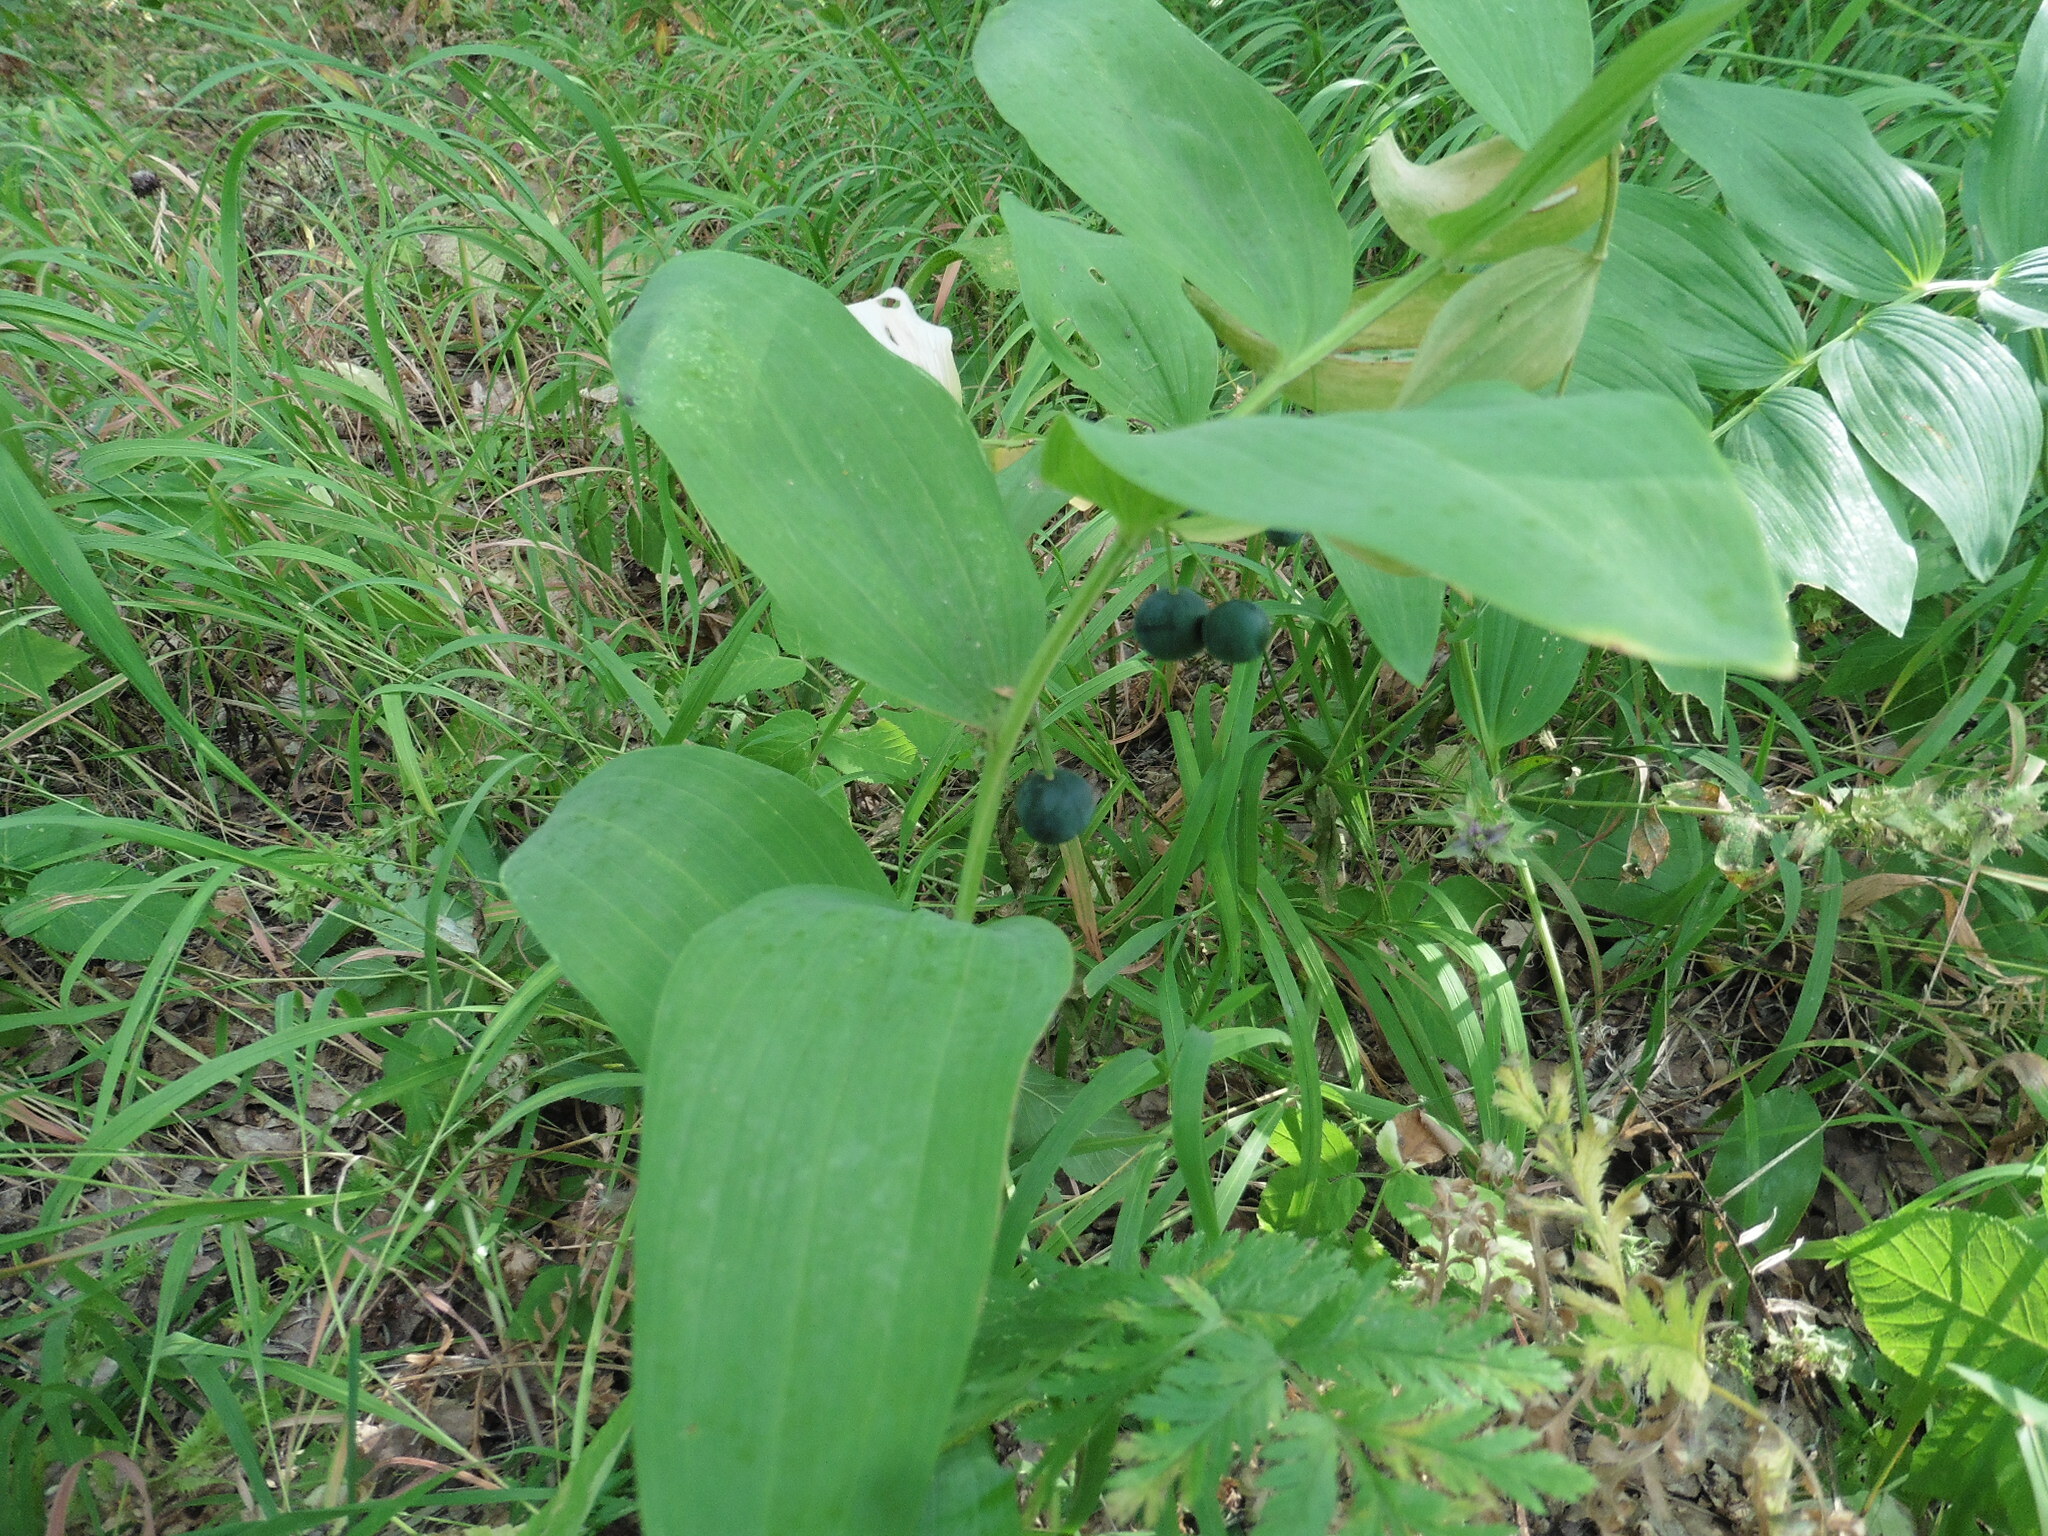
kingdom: Plantae
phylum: Tracheophyta
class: Liliopsida
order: Asparagales
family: Asparagaceae
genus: Polygonatum
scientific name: Polygonatum multiflorum
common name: Solomon's-seal
